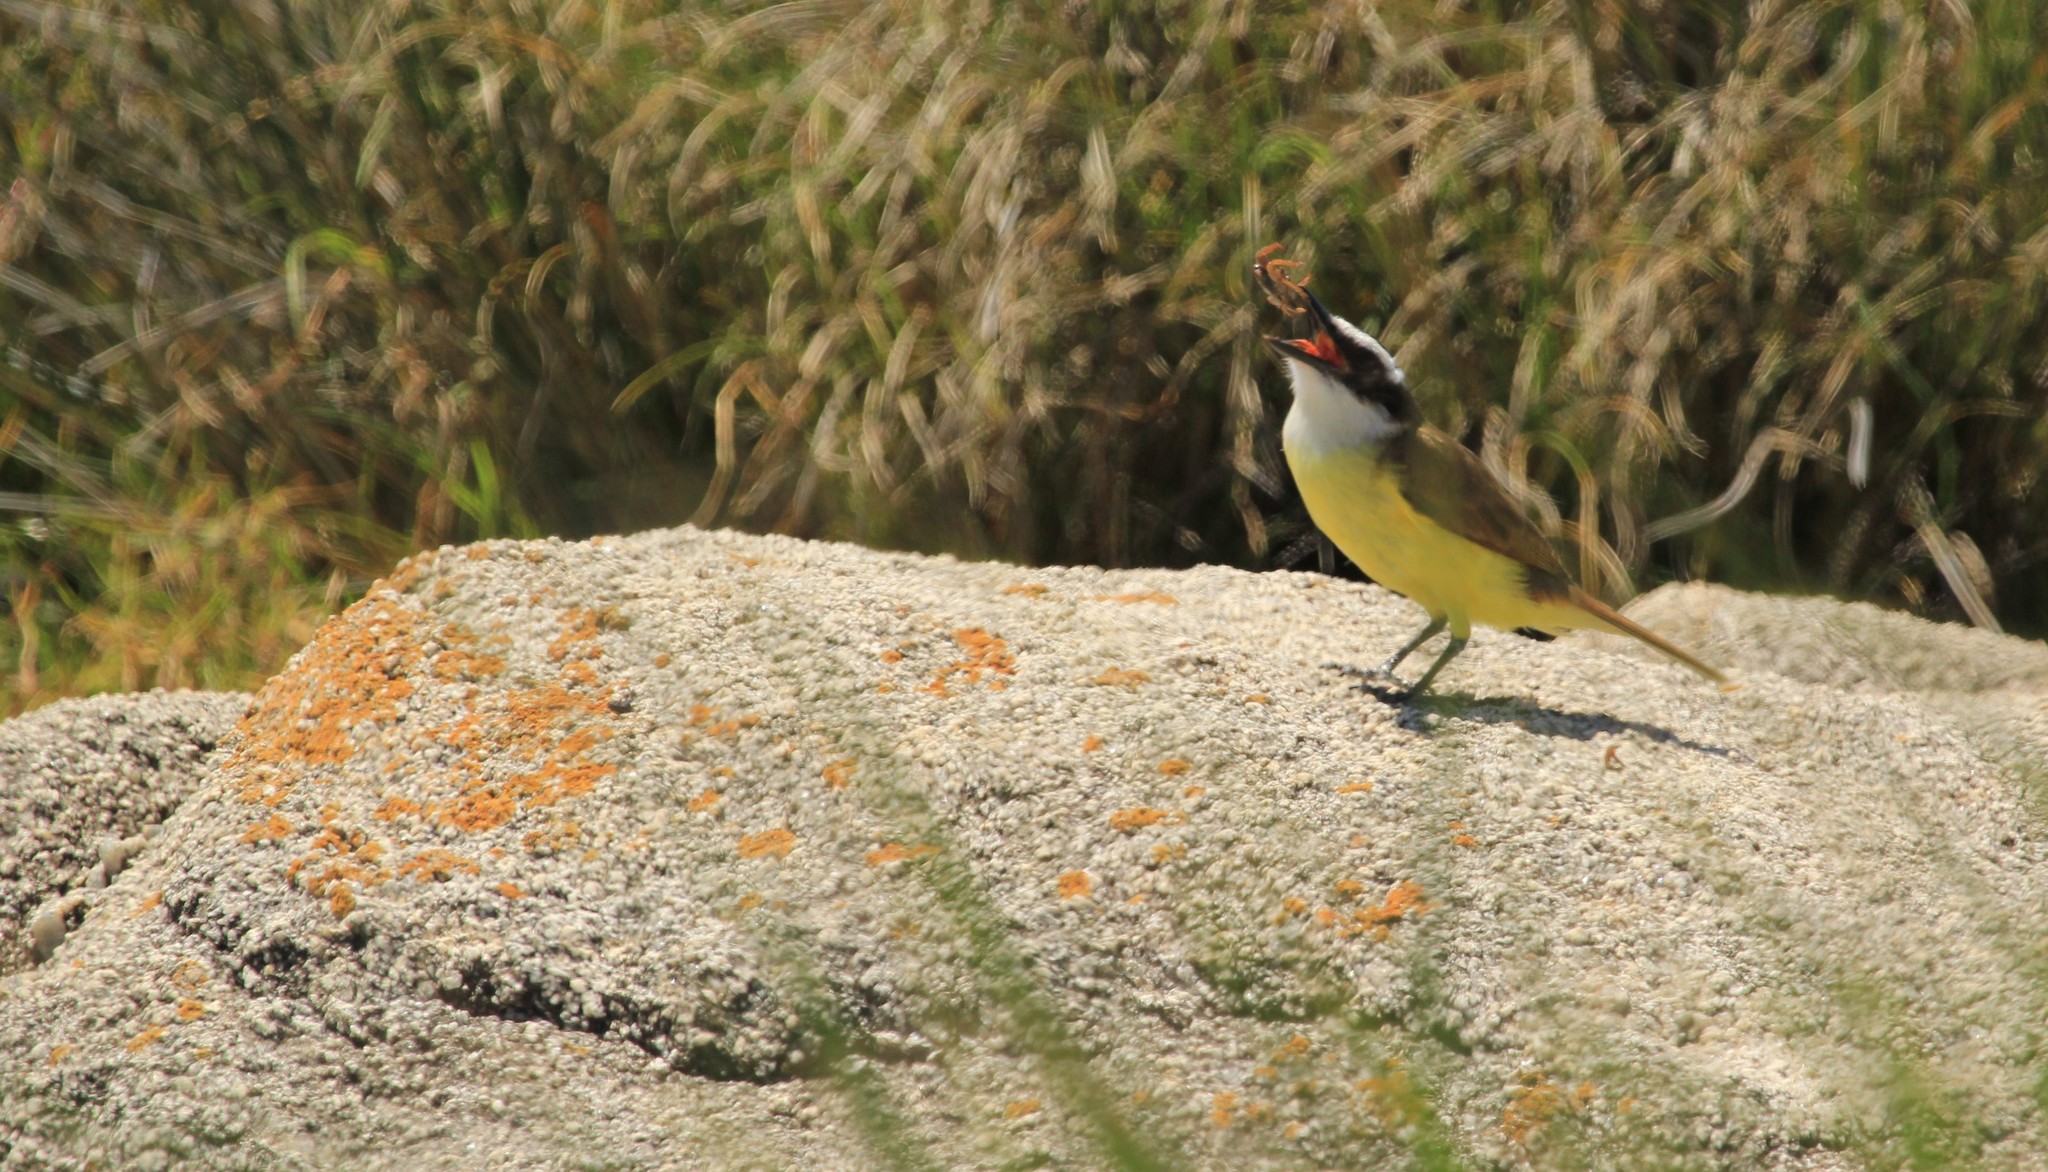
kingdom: Animalia
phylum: Chordata
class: Aves
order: Passeriformes
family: Tyrannidae
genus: Pitangus
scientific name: Pitangus sulphuratus
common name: Great kiskadee
